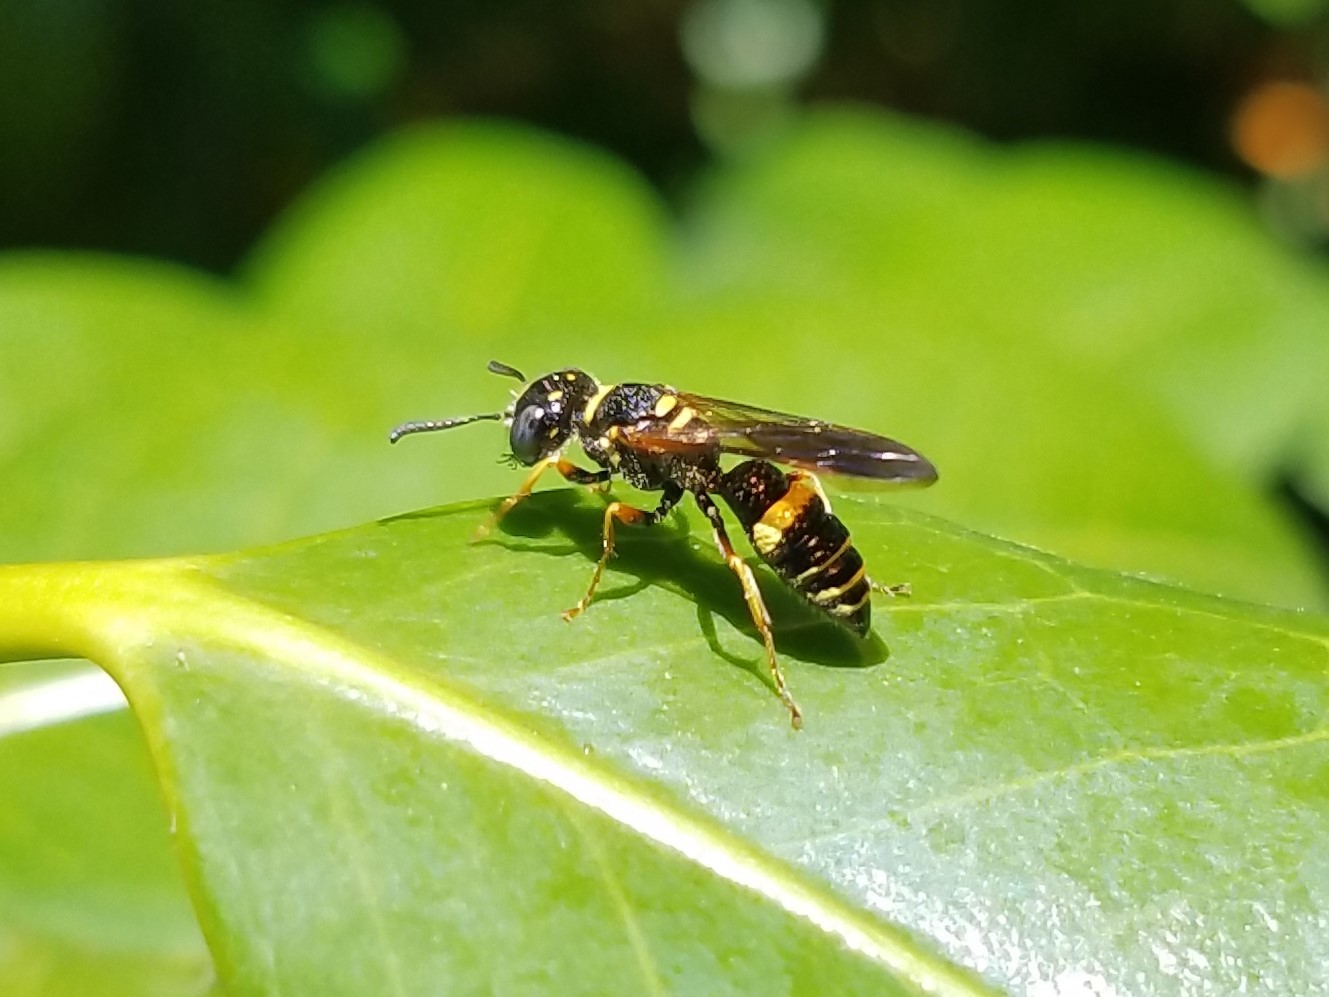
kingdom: Animalia
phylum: Arthropoda
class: Insecta
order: Hymenoptera
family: Crabronidae
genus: Philanthus
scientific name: Philanthus gibbosus
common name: Humped beewolf
